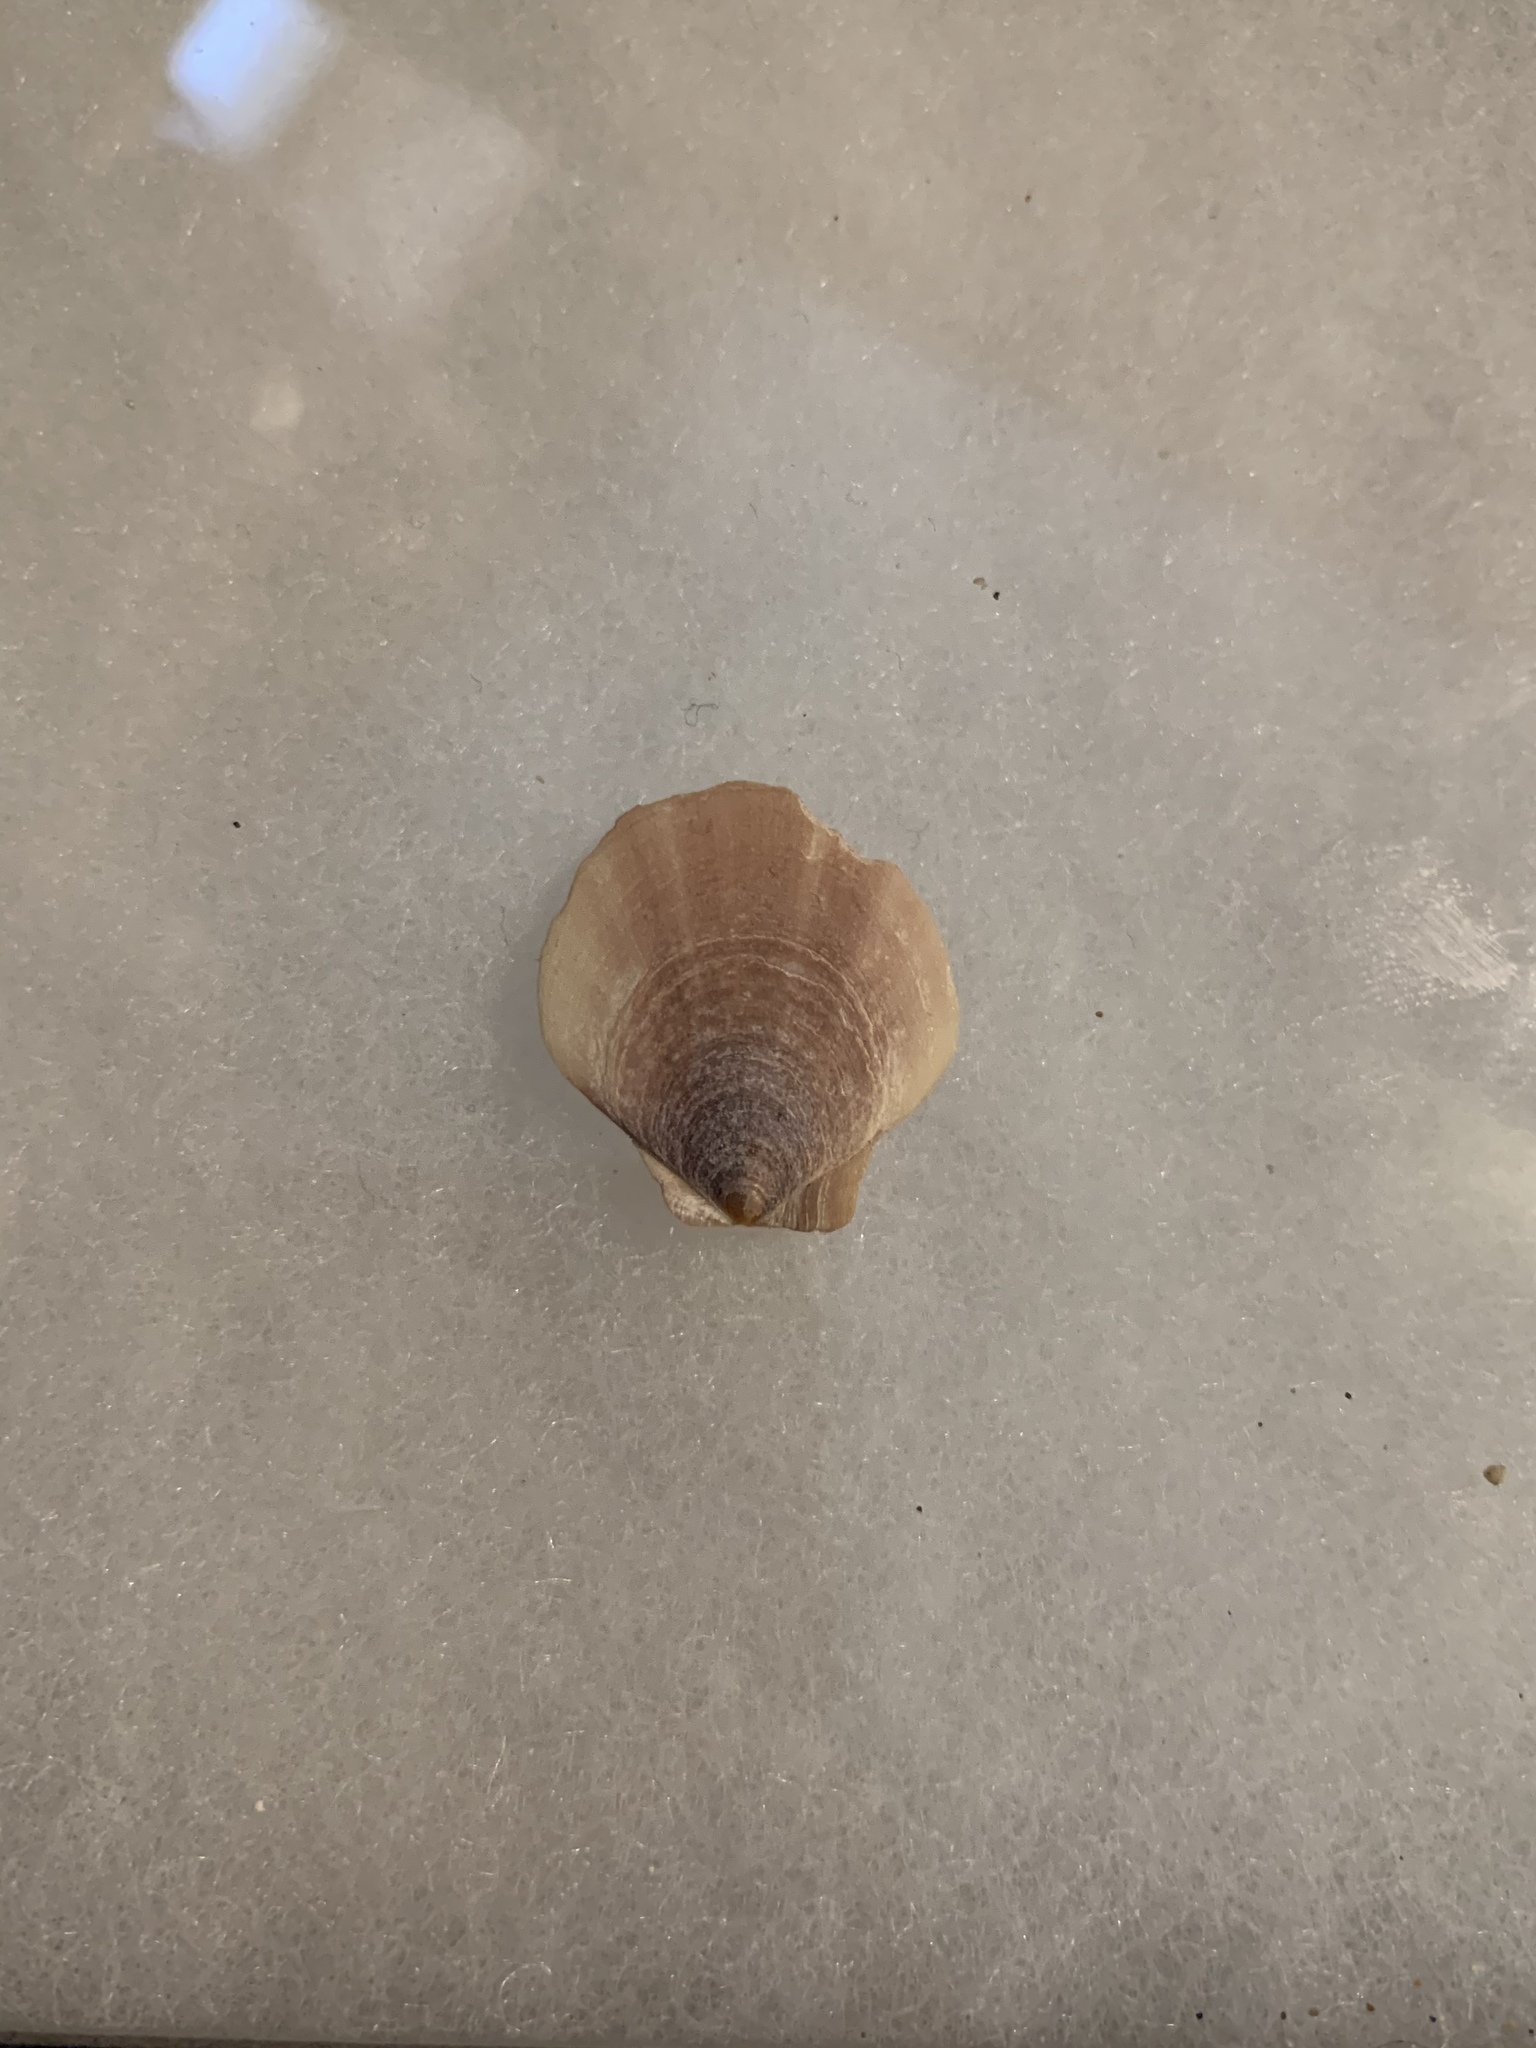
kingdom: Animalia
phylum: Mollusca
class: Bivalvia
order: Pectinida
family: Pectinidae
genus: Placopecten
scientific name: Placopecten magellanicus
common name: American sea scallop
